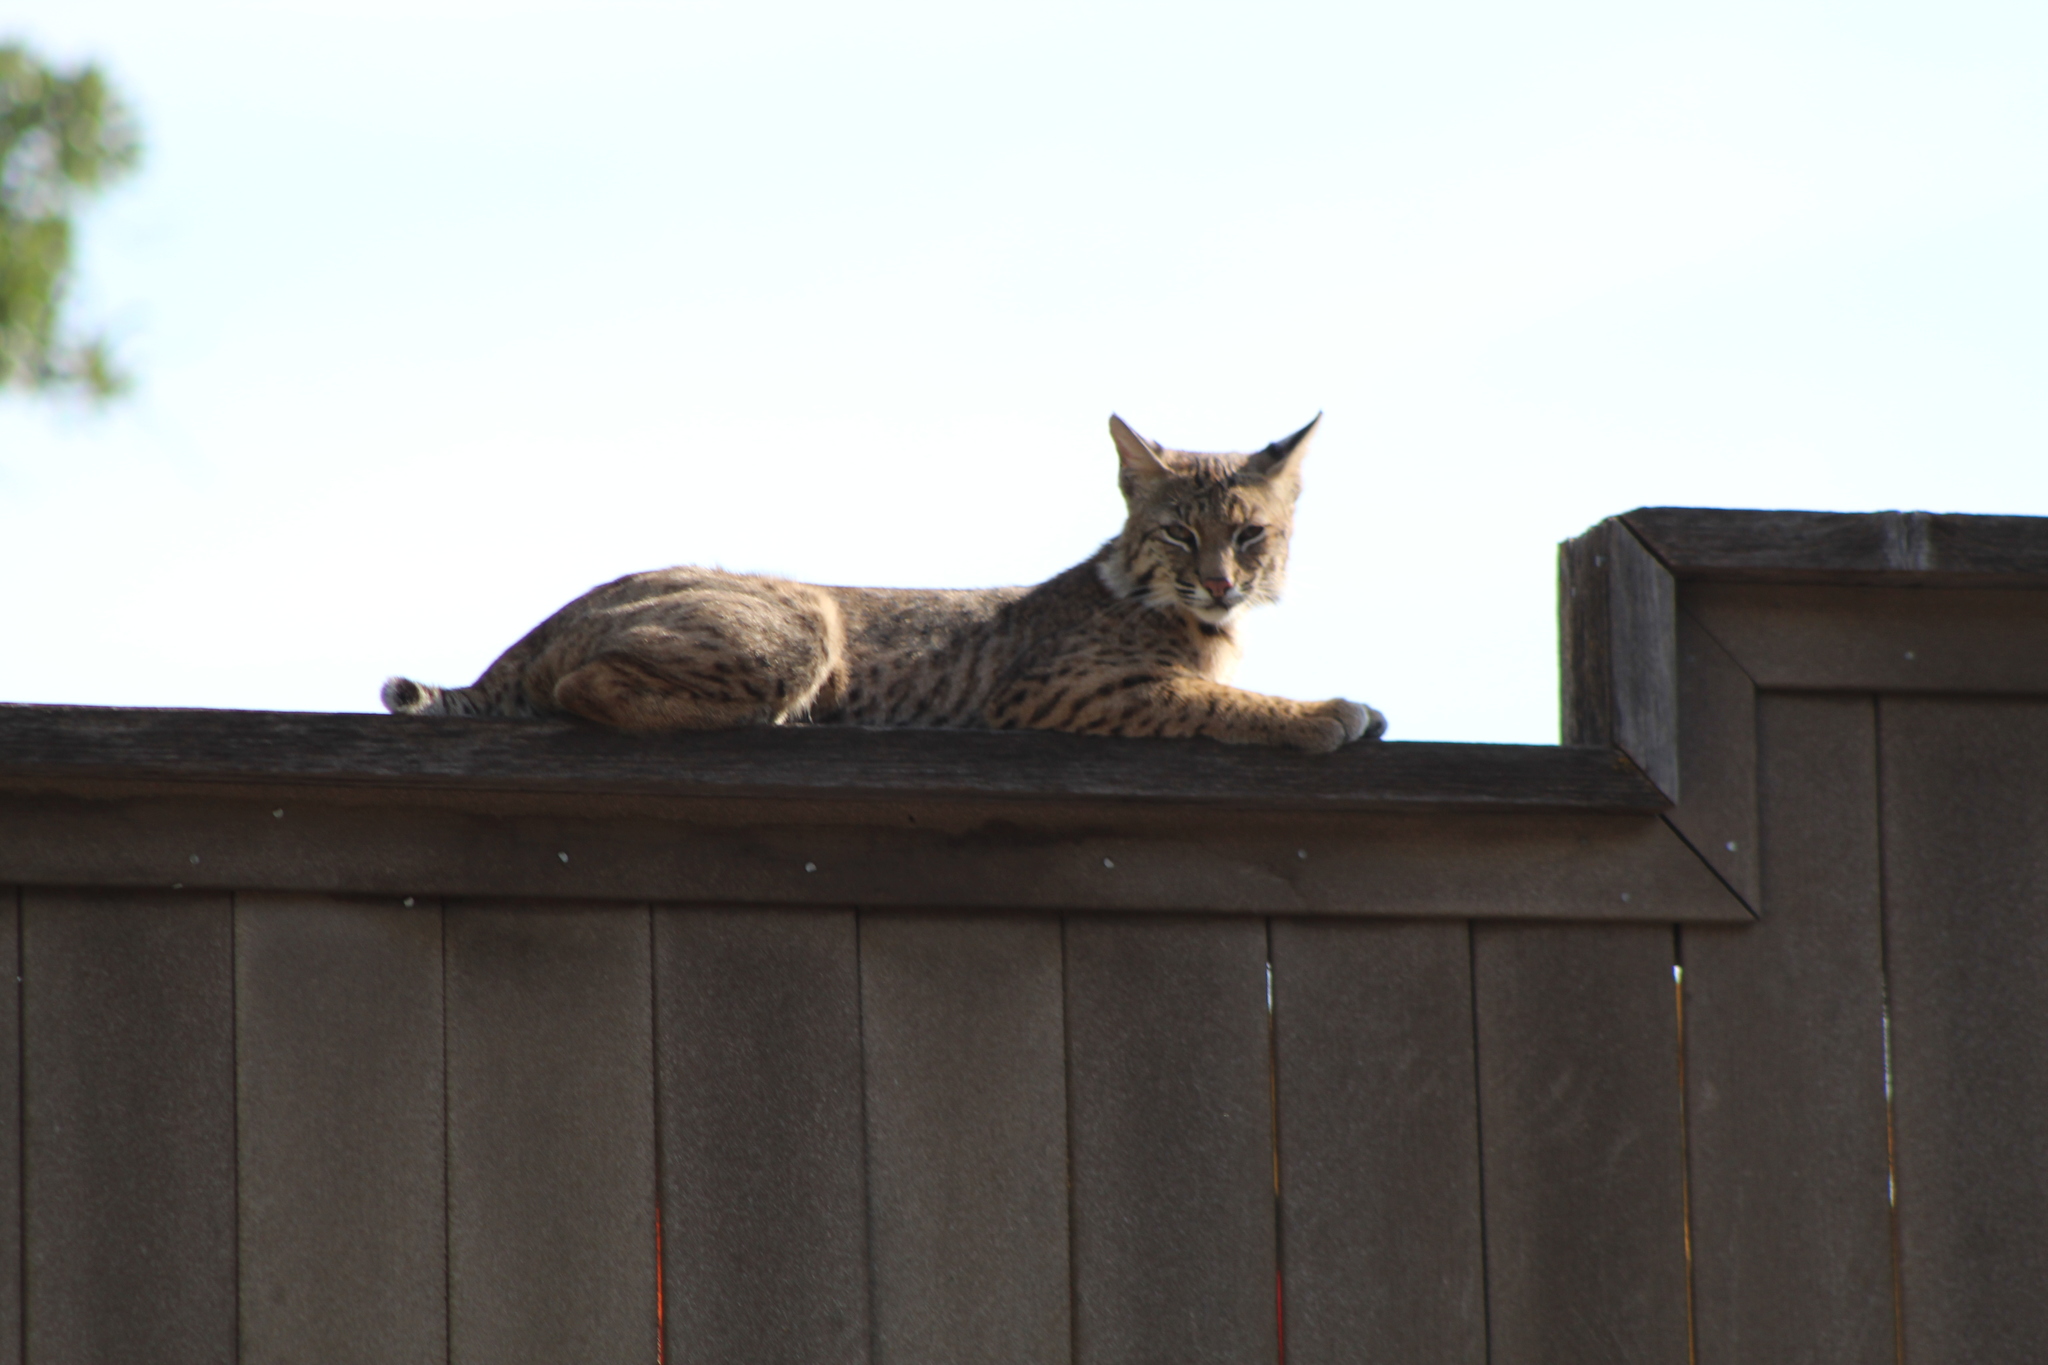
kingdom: Animalia
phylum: Chordata
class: Mammalia
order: Carnivora
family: Felidae
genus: Lynx
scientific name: Lynx rufus
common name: Bobcat
